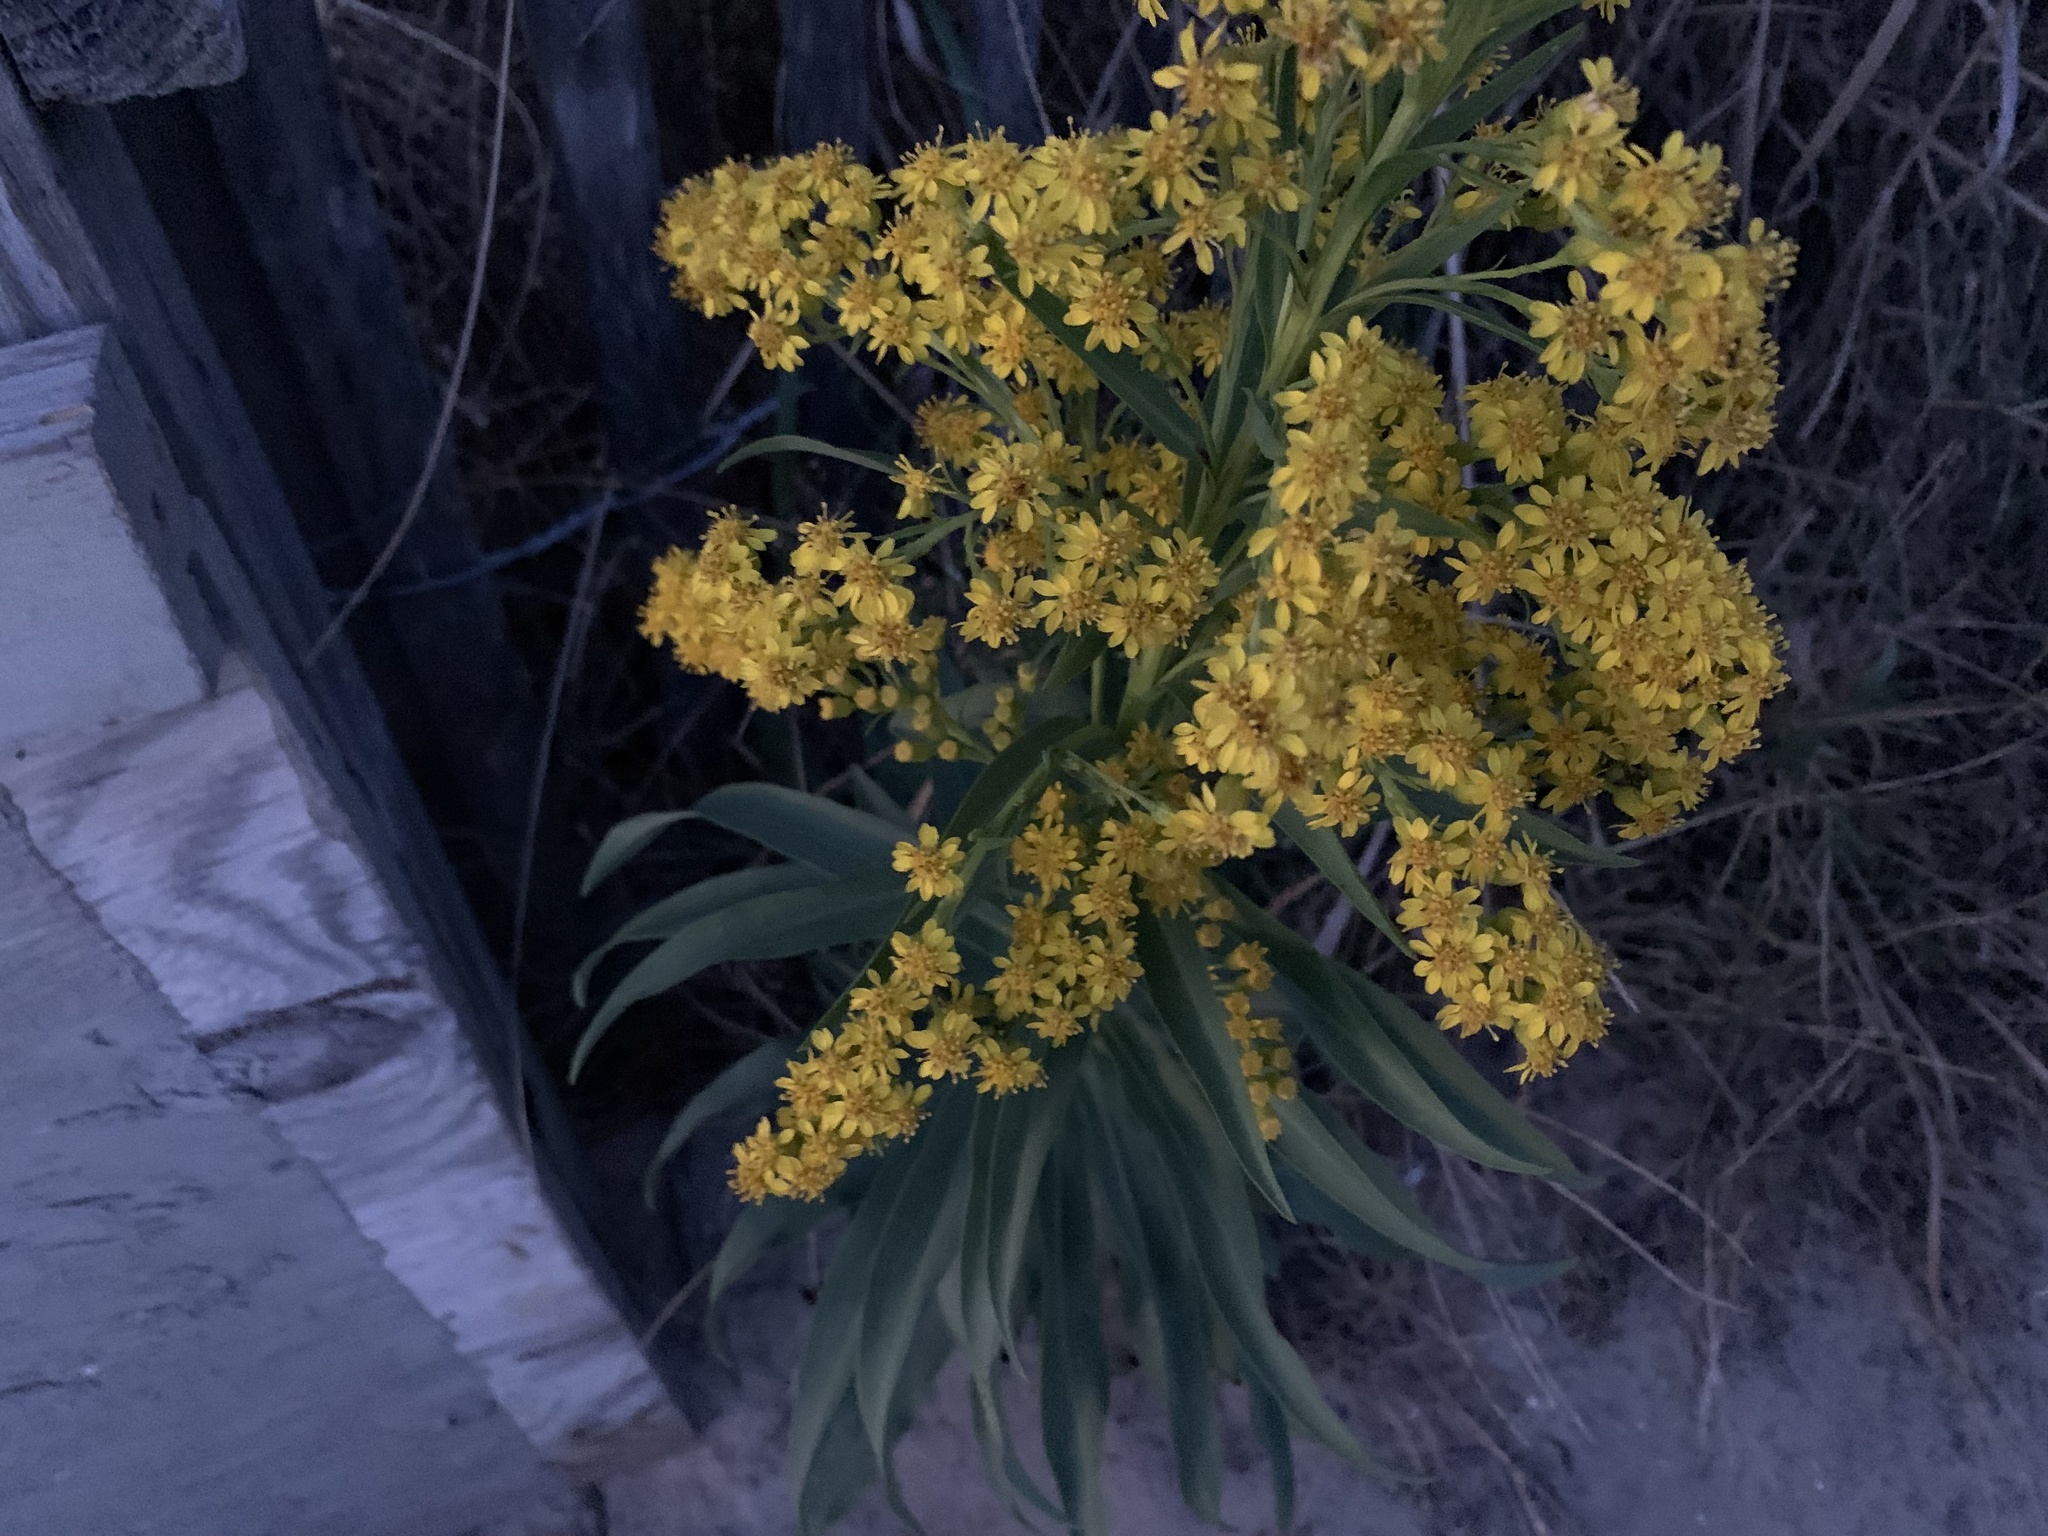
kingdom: Plantae
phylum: Tracheophyta
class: Magnoliopsida
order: Asterales
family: Asteraceae
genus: Solidago
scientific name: Solidago sempervirens
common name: Salt-marsh goldenrod
